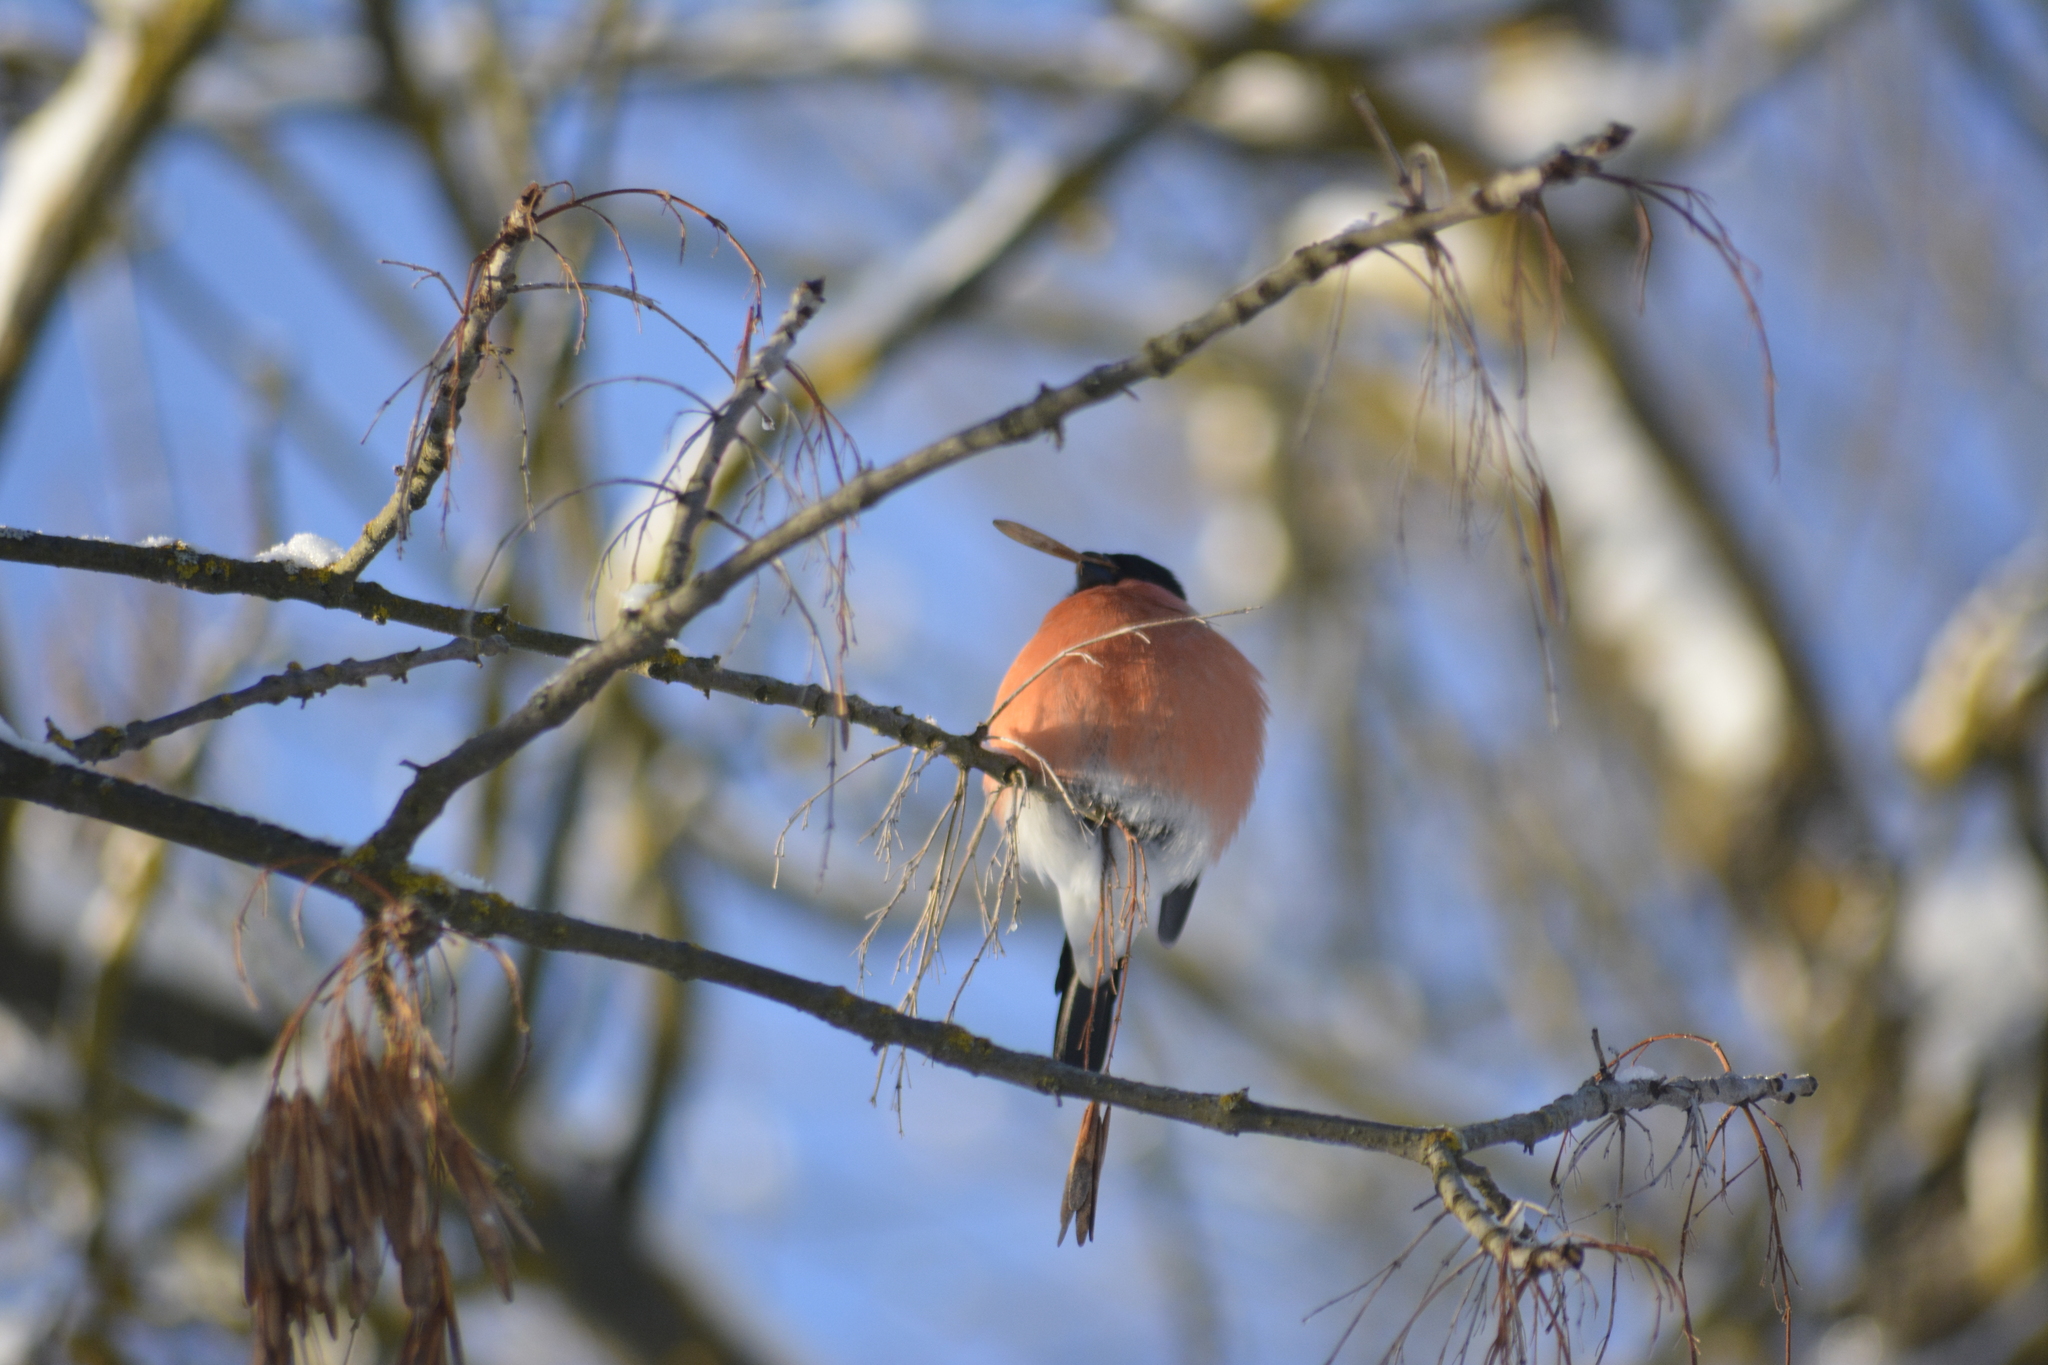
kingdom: Animalia
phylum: Chordata
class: Aves
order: Passeriformes
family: Fringillidae
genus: Pyrrhula
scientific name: Pyrrhula pyrrhula
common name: Eurasian bullfinch
